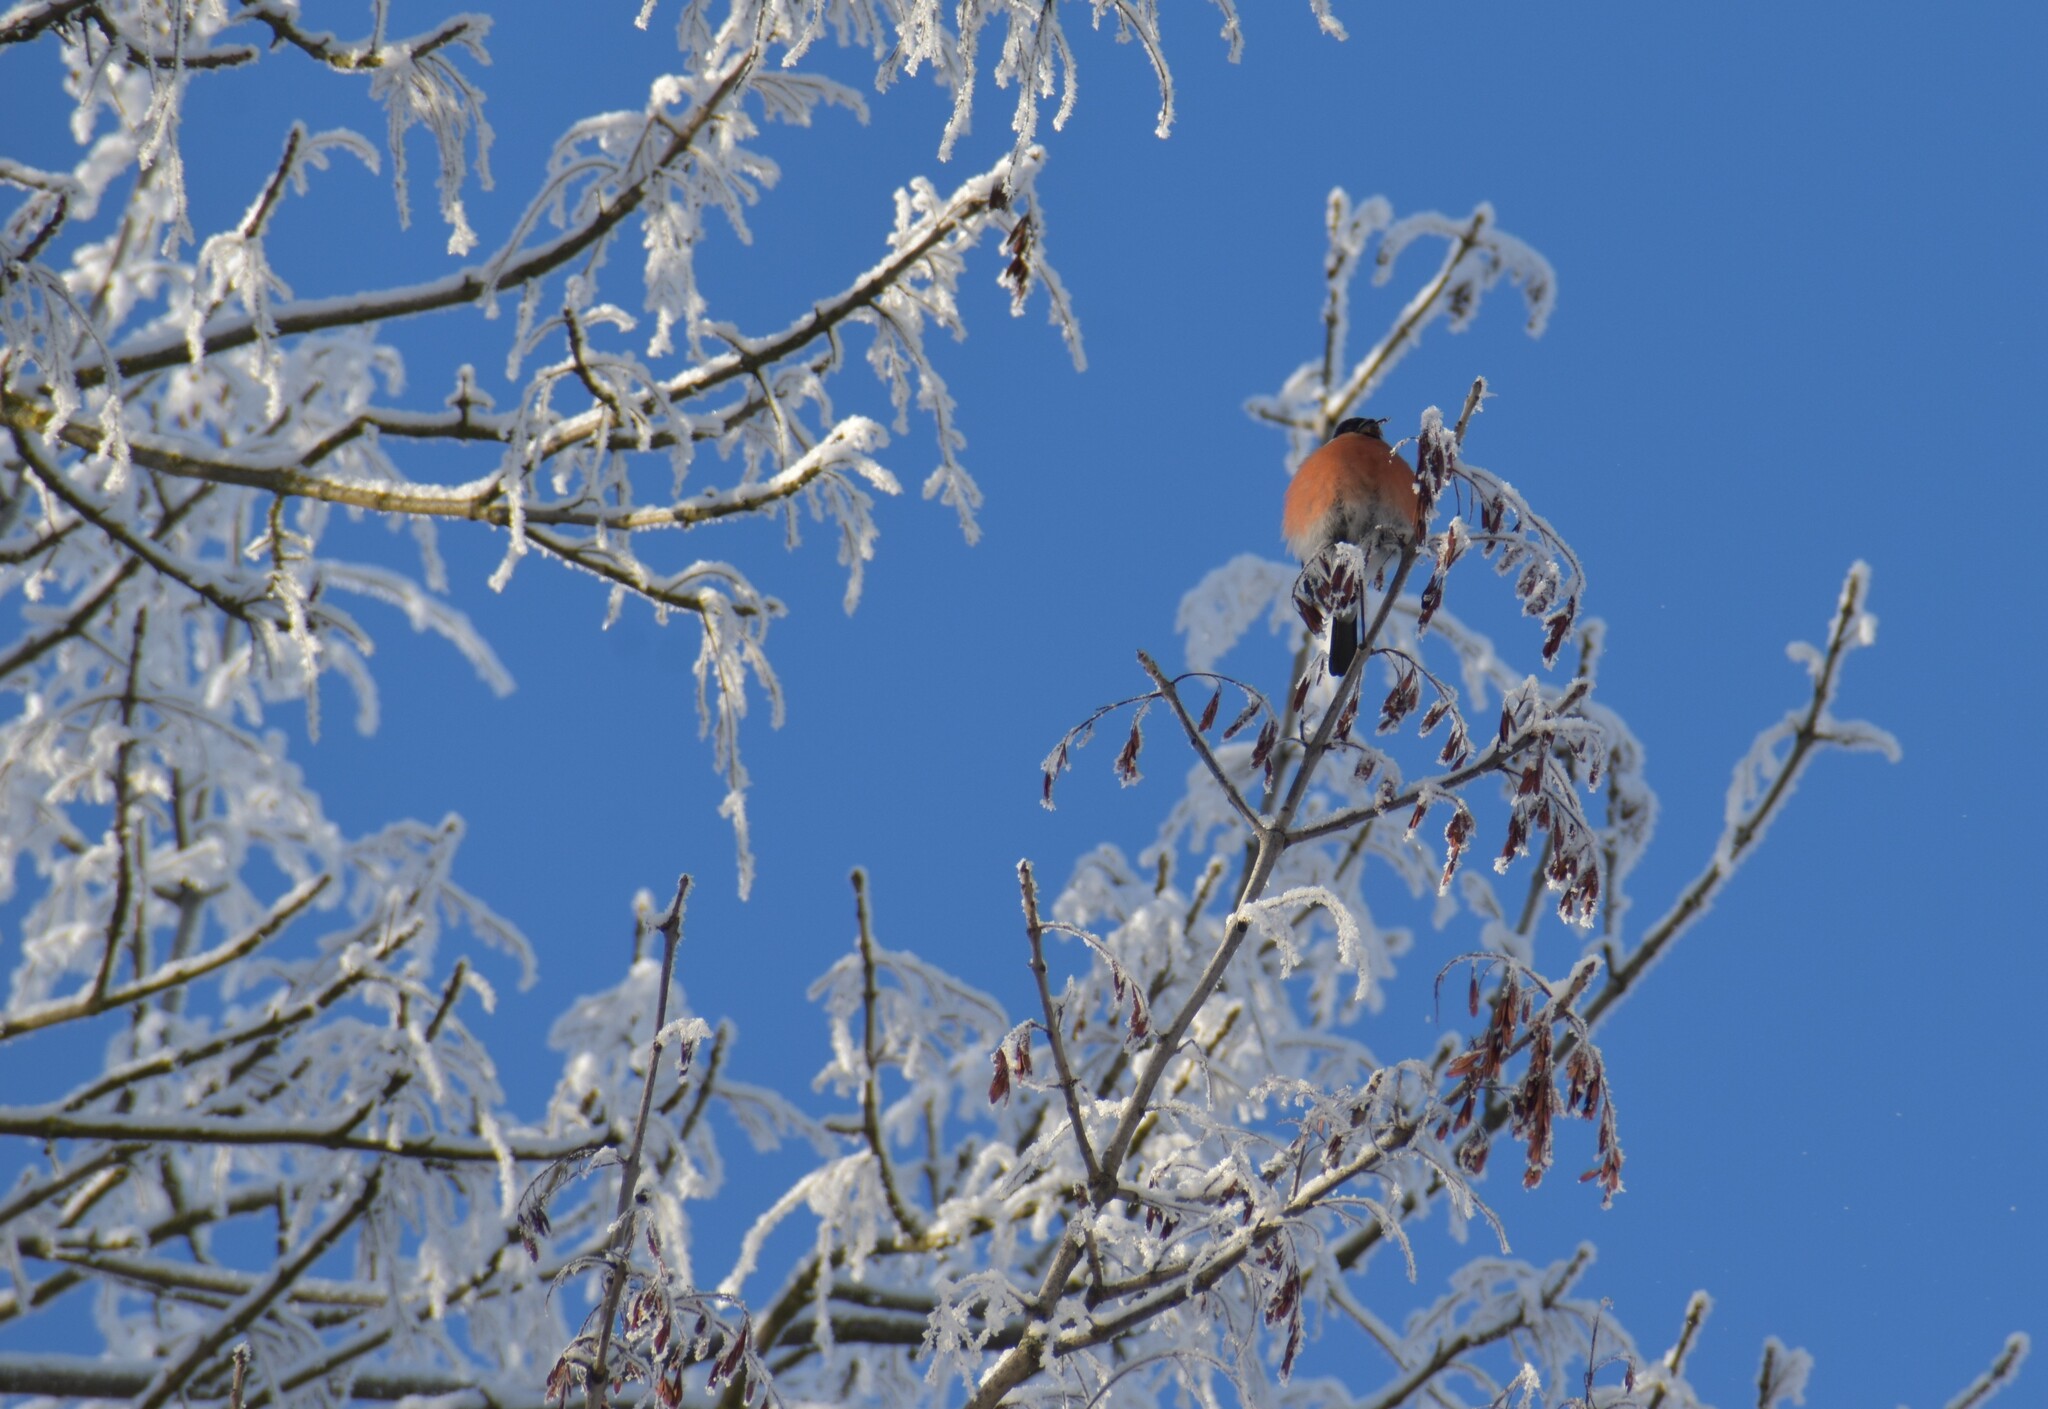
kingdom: Animalia
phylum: Chordata
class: Aves
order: Passeriformes
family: Fringillidae
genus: Pyrrhula
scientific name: Pyrrhula pyrrhula
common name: Eurasian bullfinch
